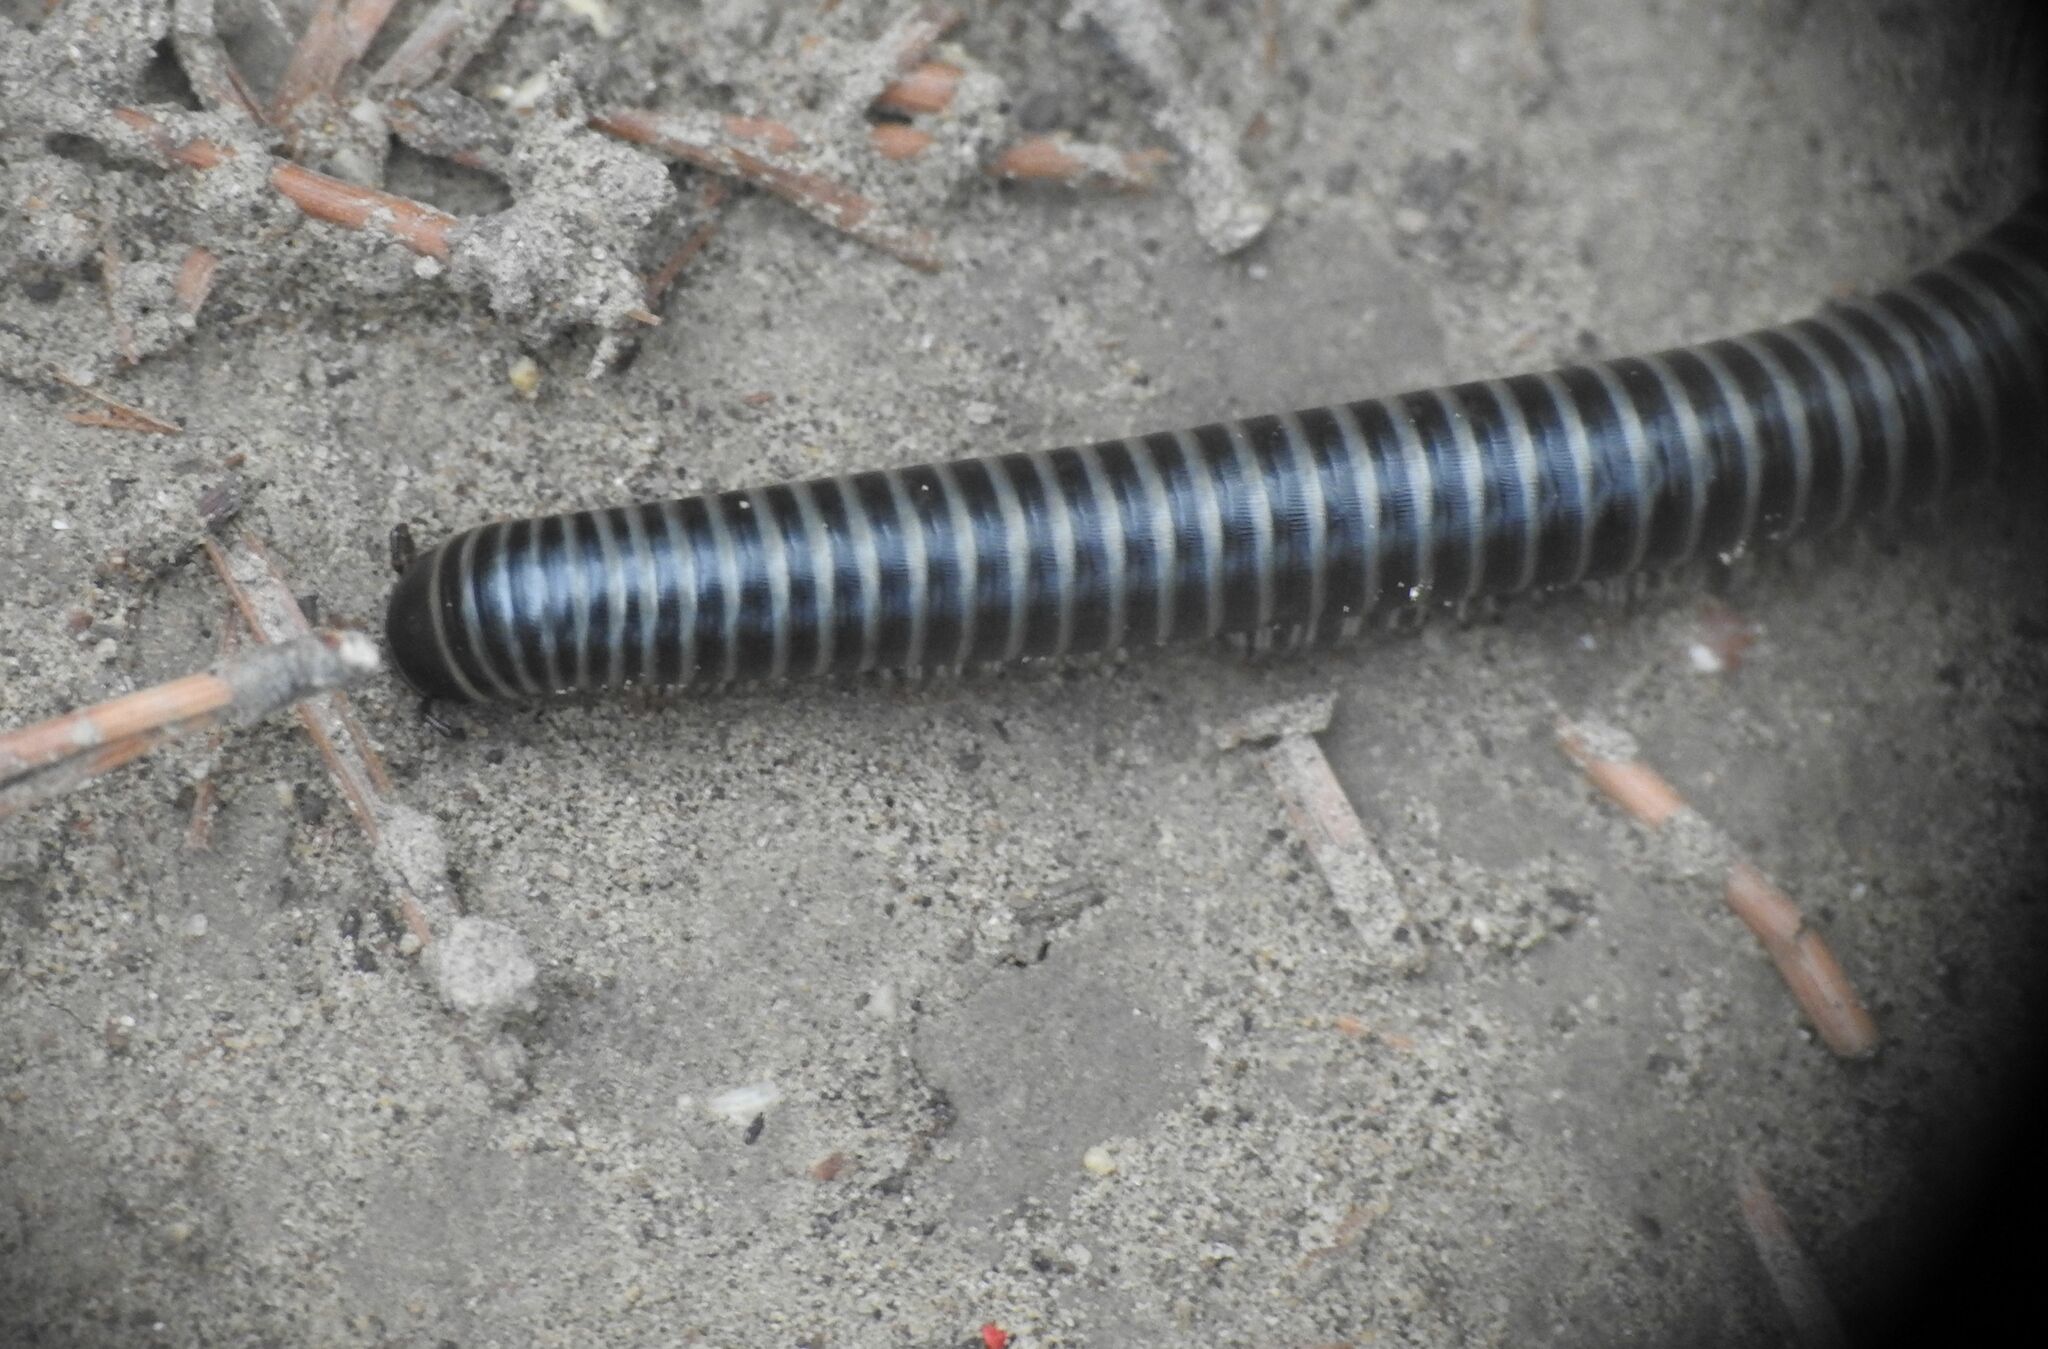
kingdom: Animalia
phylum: Arthropoda
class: Diplopoda
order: Julida
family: Julidae
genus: Ommatoiulus
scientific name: Ommatoiulus sabulosus
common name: Striped millipede
